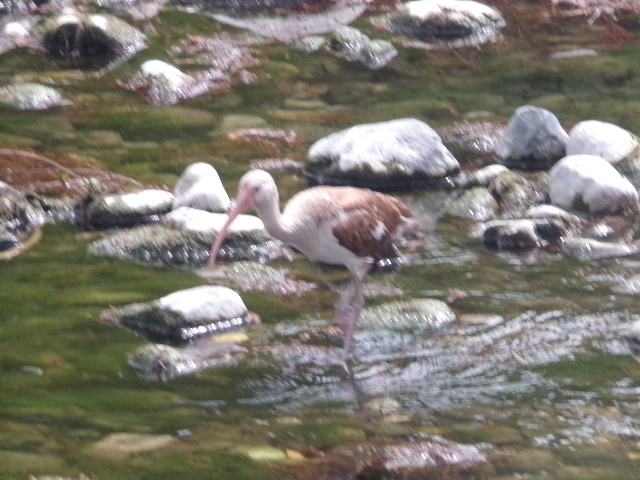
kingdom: Animalia
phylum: Chordata
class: Aves
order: Pelecaniformes
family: Threskiornithidae
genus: Eudocimus
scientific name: Eudocimus albus
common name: White ibis
